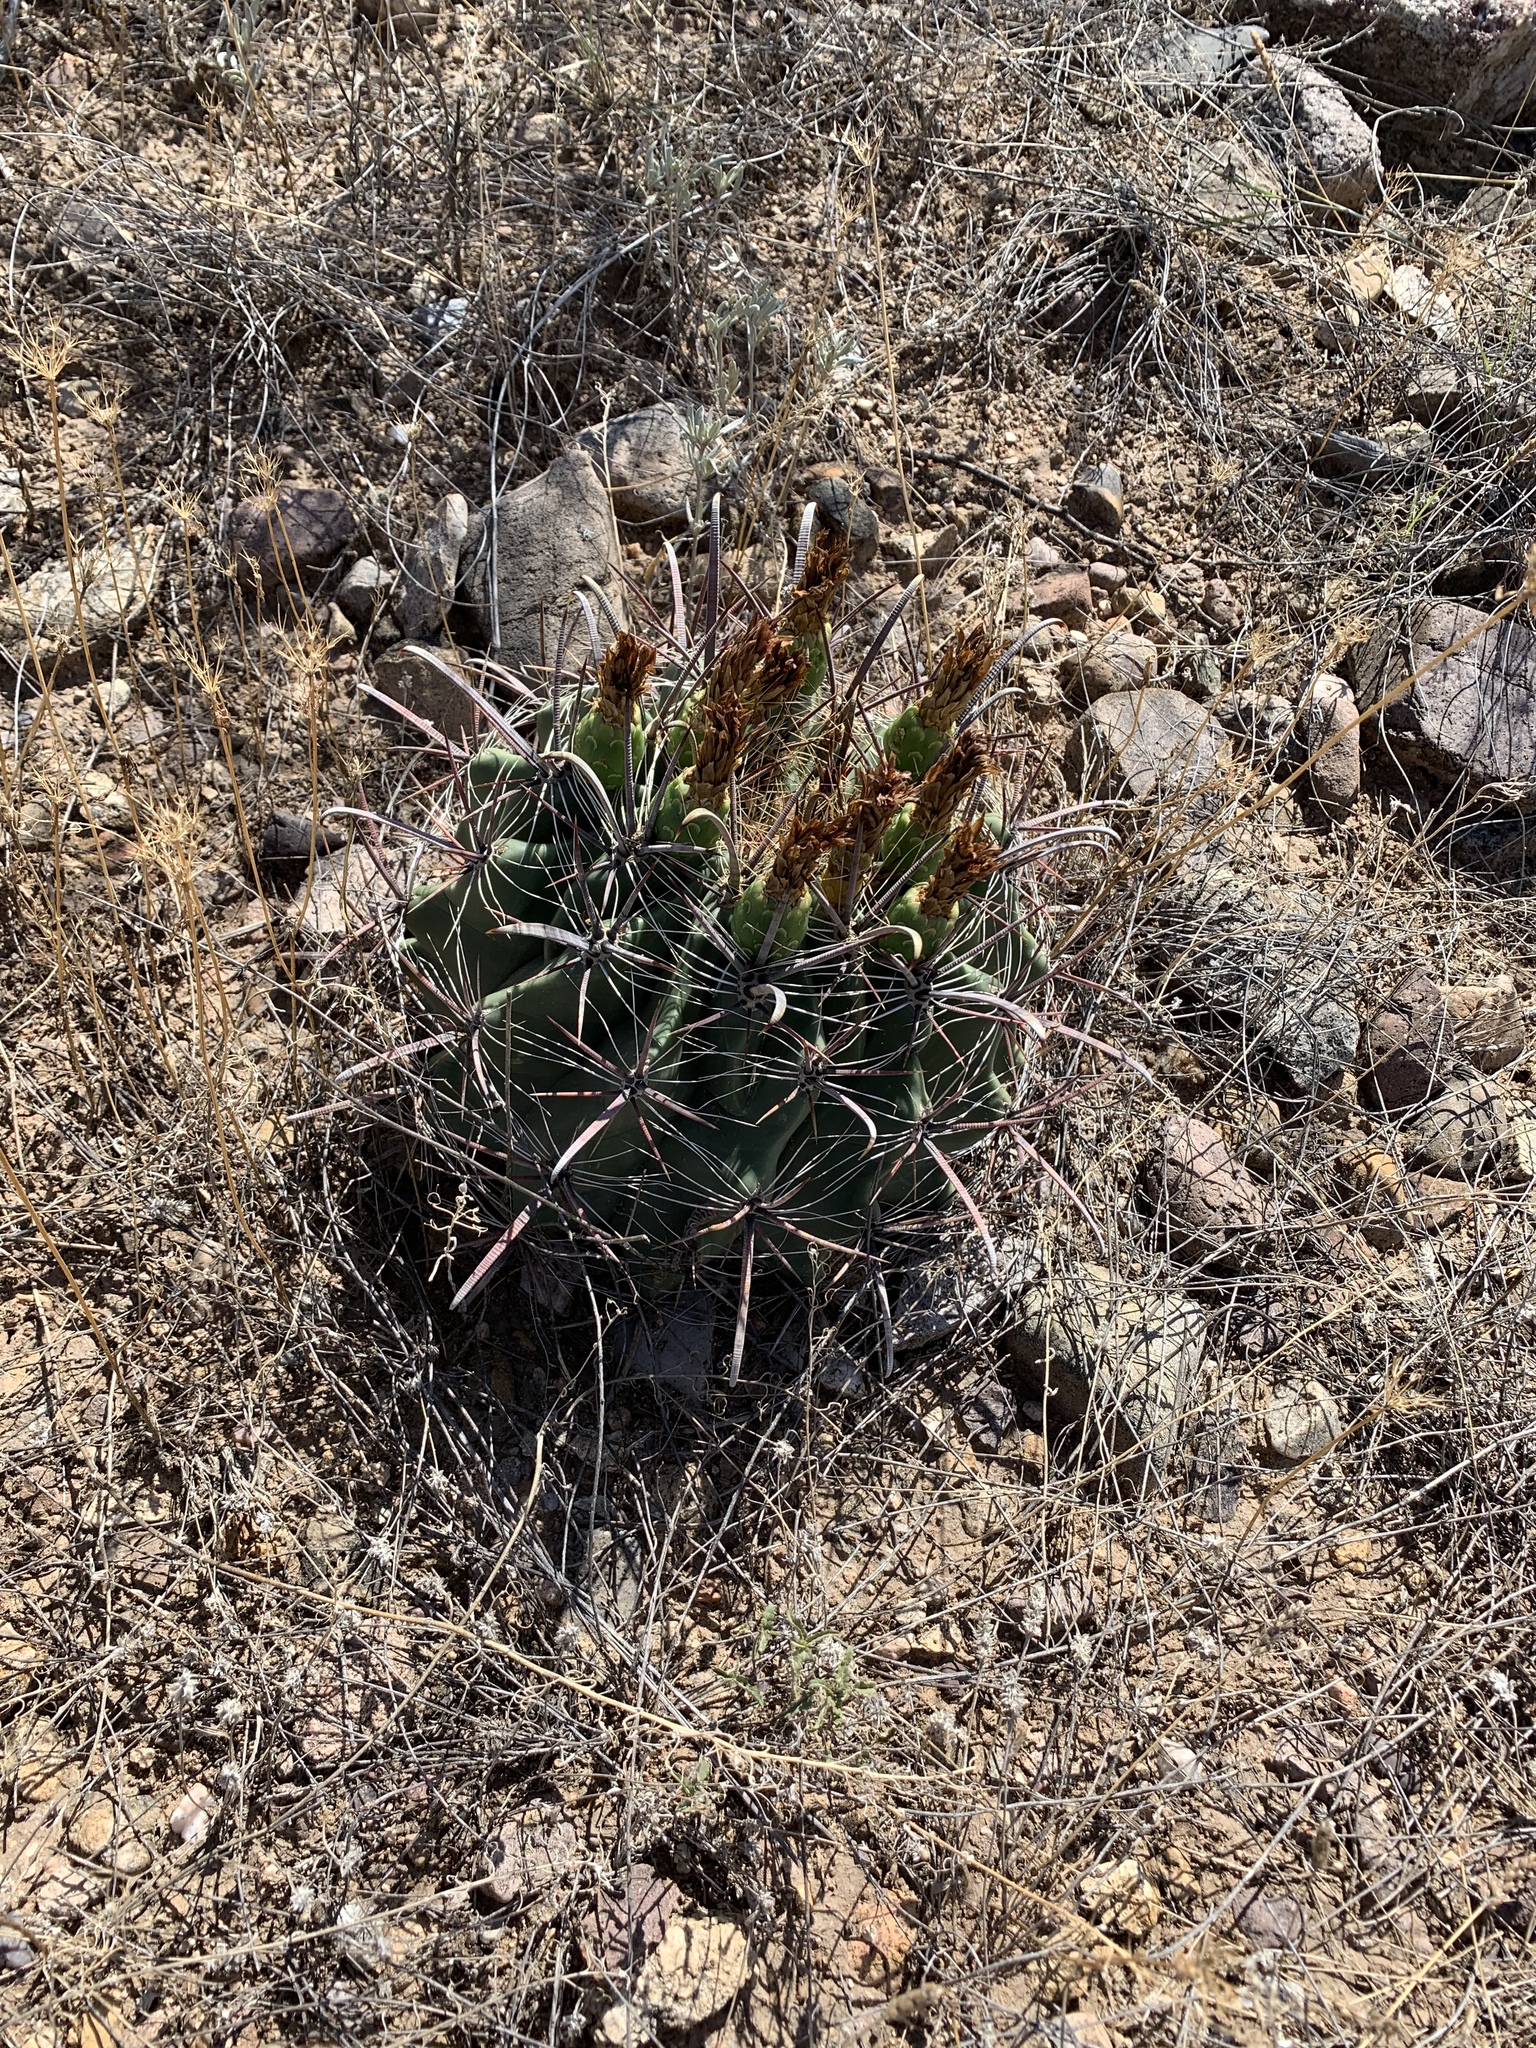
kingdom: Plantae
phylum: Tracheophyta
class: Magnoliopsida
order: Caryophyllales
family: Cactaceae
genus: Ferocactus
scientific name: Ferocactus wislizeni
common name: Candy barrel cactus
